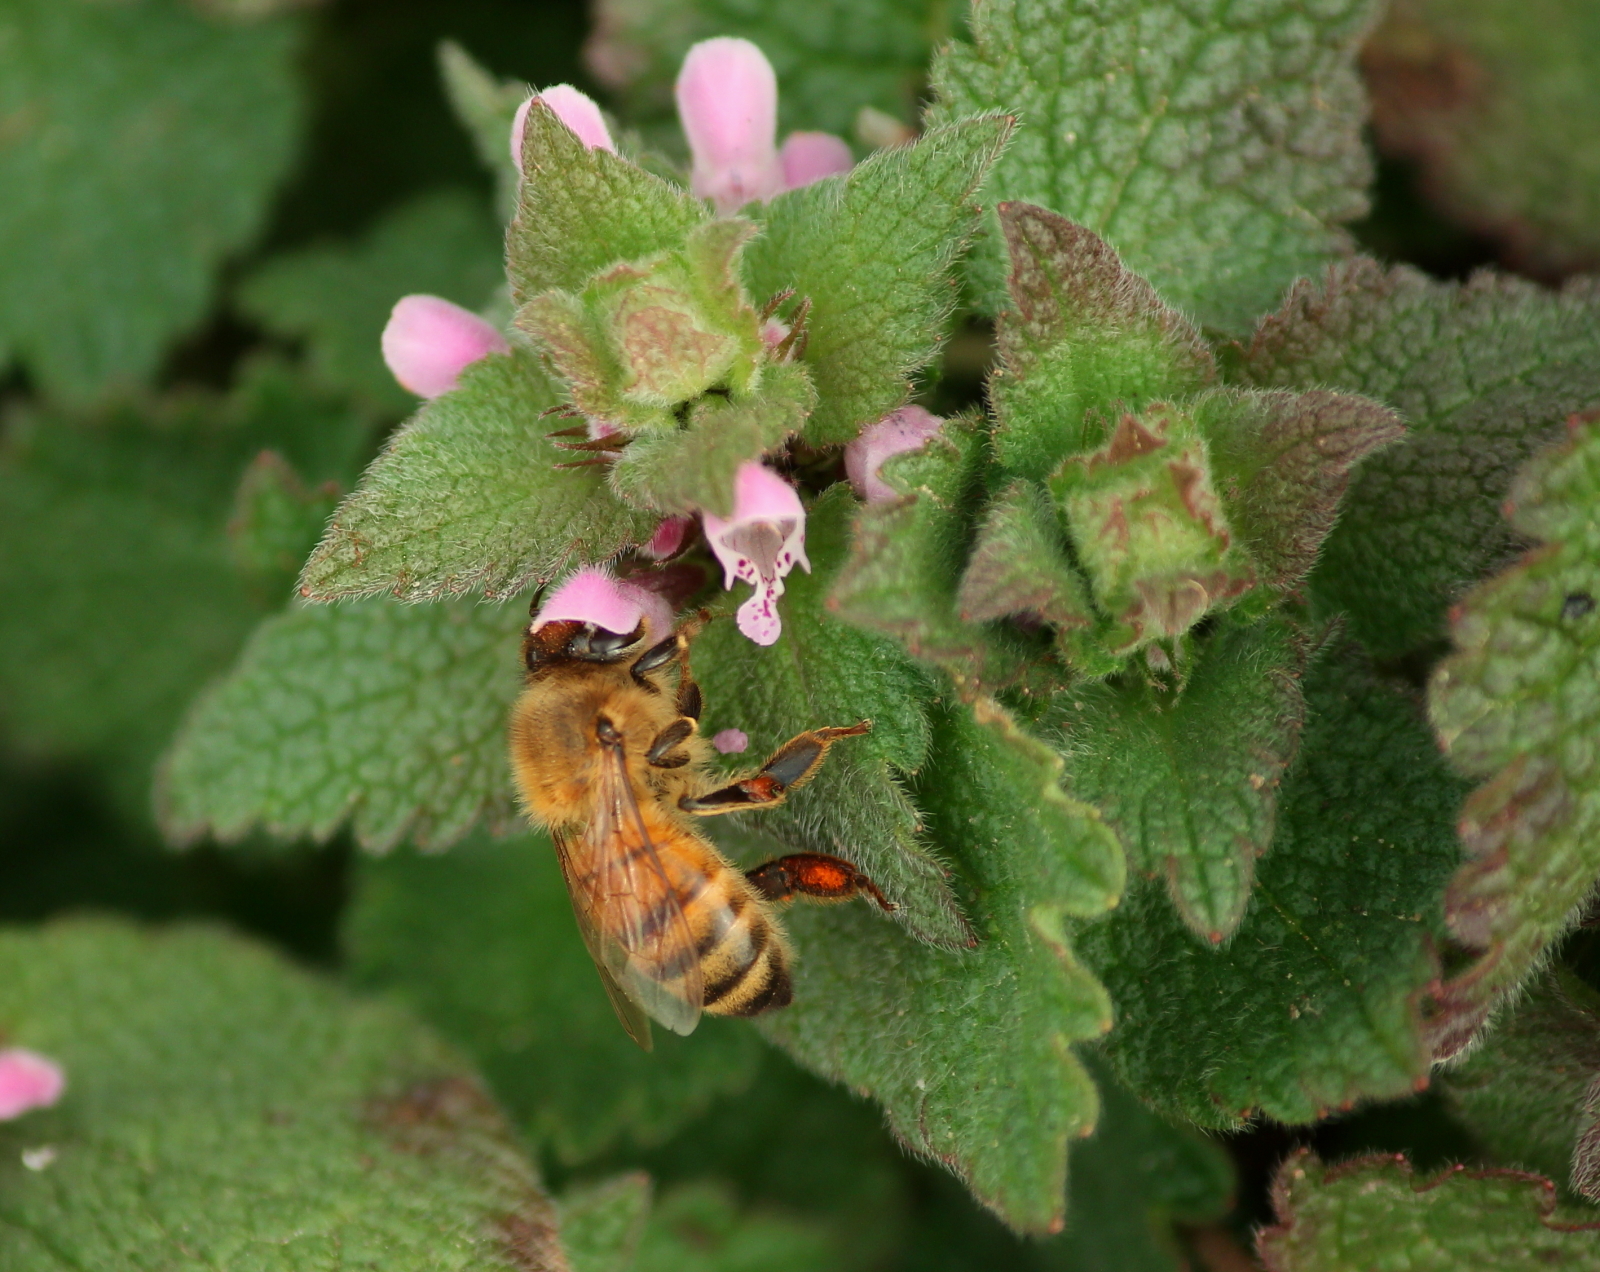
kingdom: Plantae
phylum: Tracheophyta
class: Magnoliopsida
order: Lamiales
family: Lamiaceae
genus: Lamium
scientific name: Lamium purpureum
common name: Red dead-nettle
